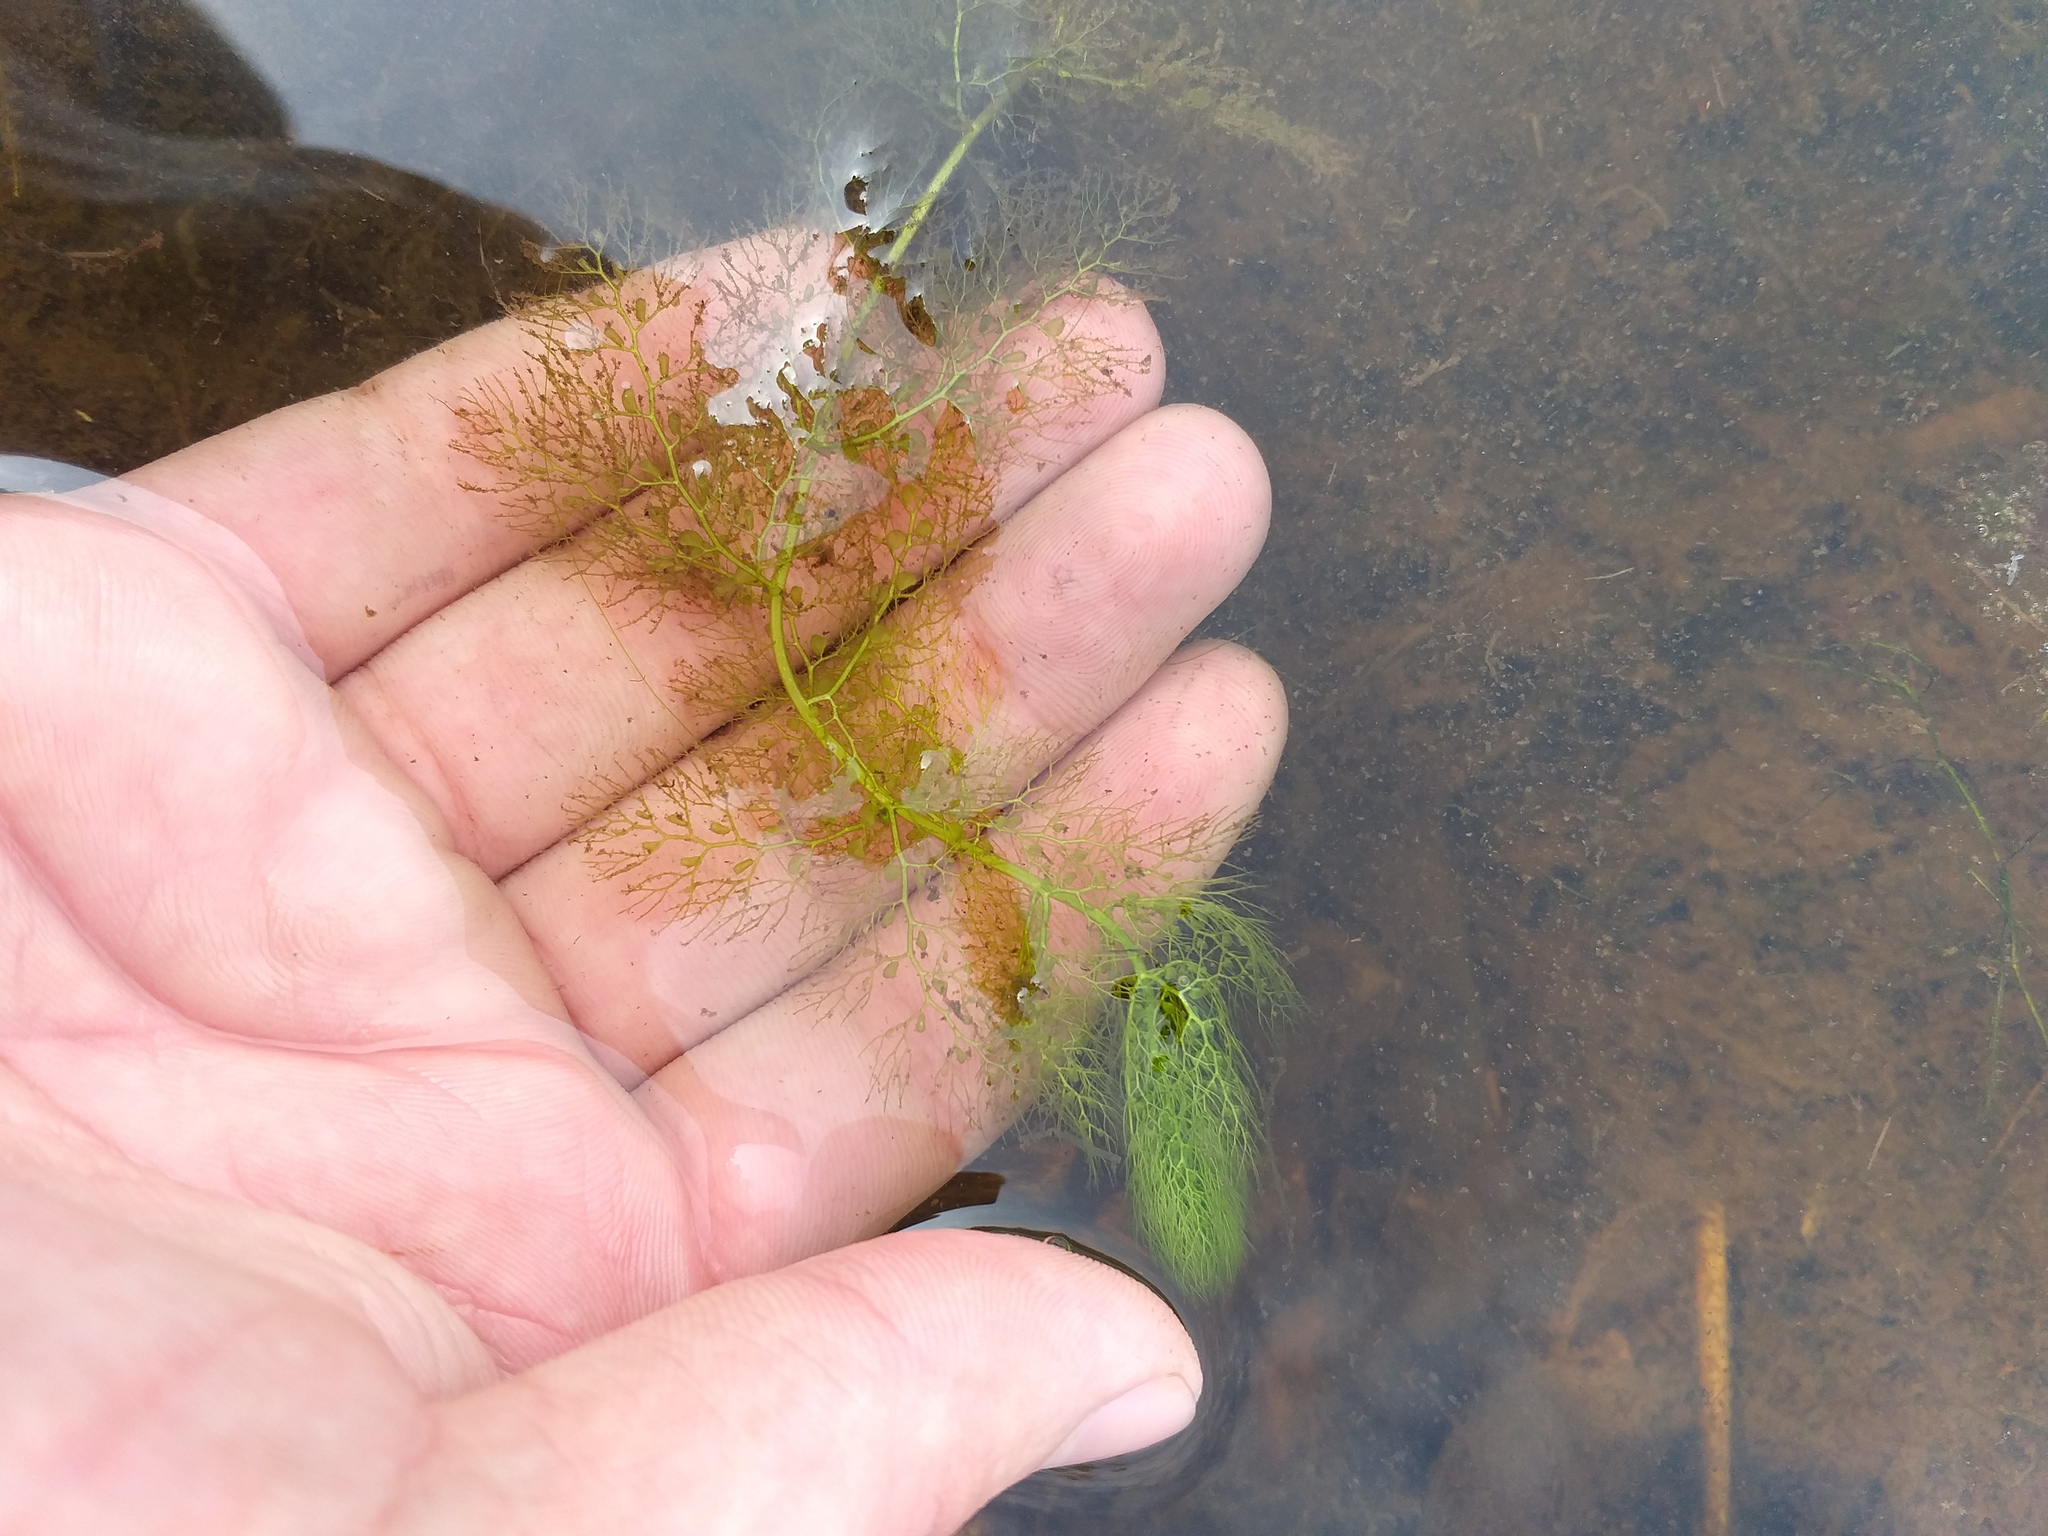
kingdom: Plantae
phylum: Tracheophyta
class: Magnoliopsida
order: Lamiales
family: Lentibulariaceae
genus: Utricularia
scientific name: Utricularia
